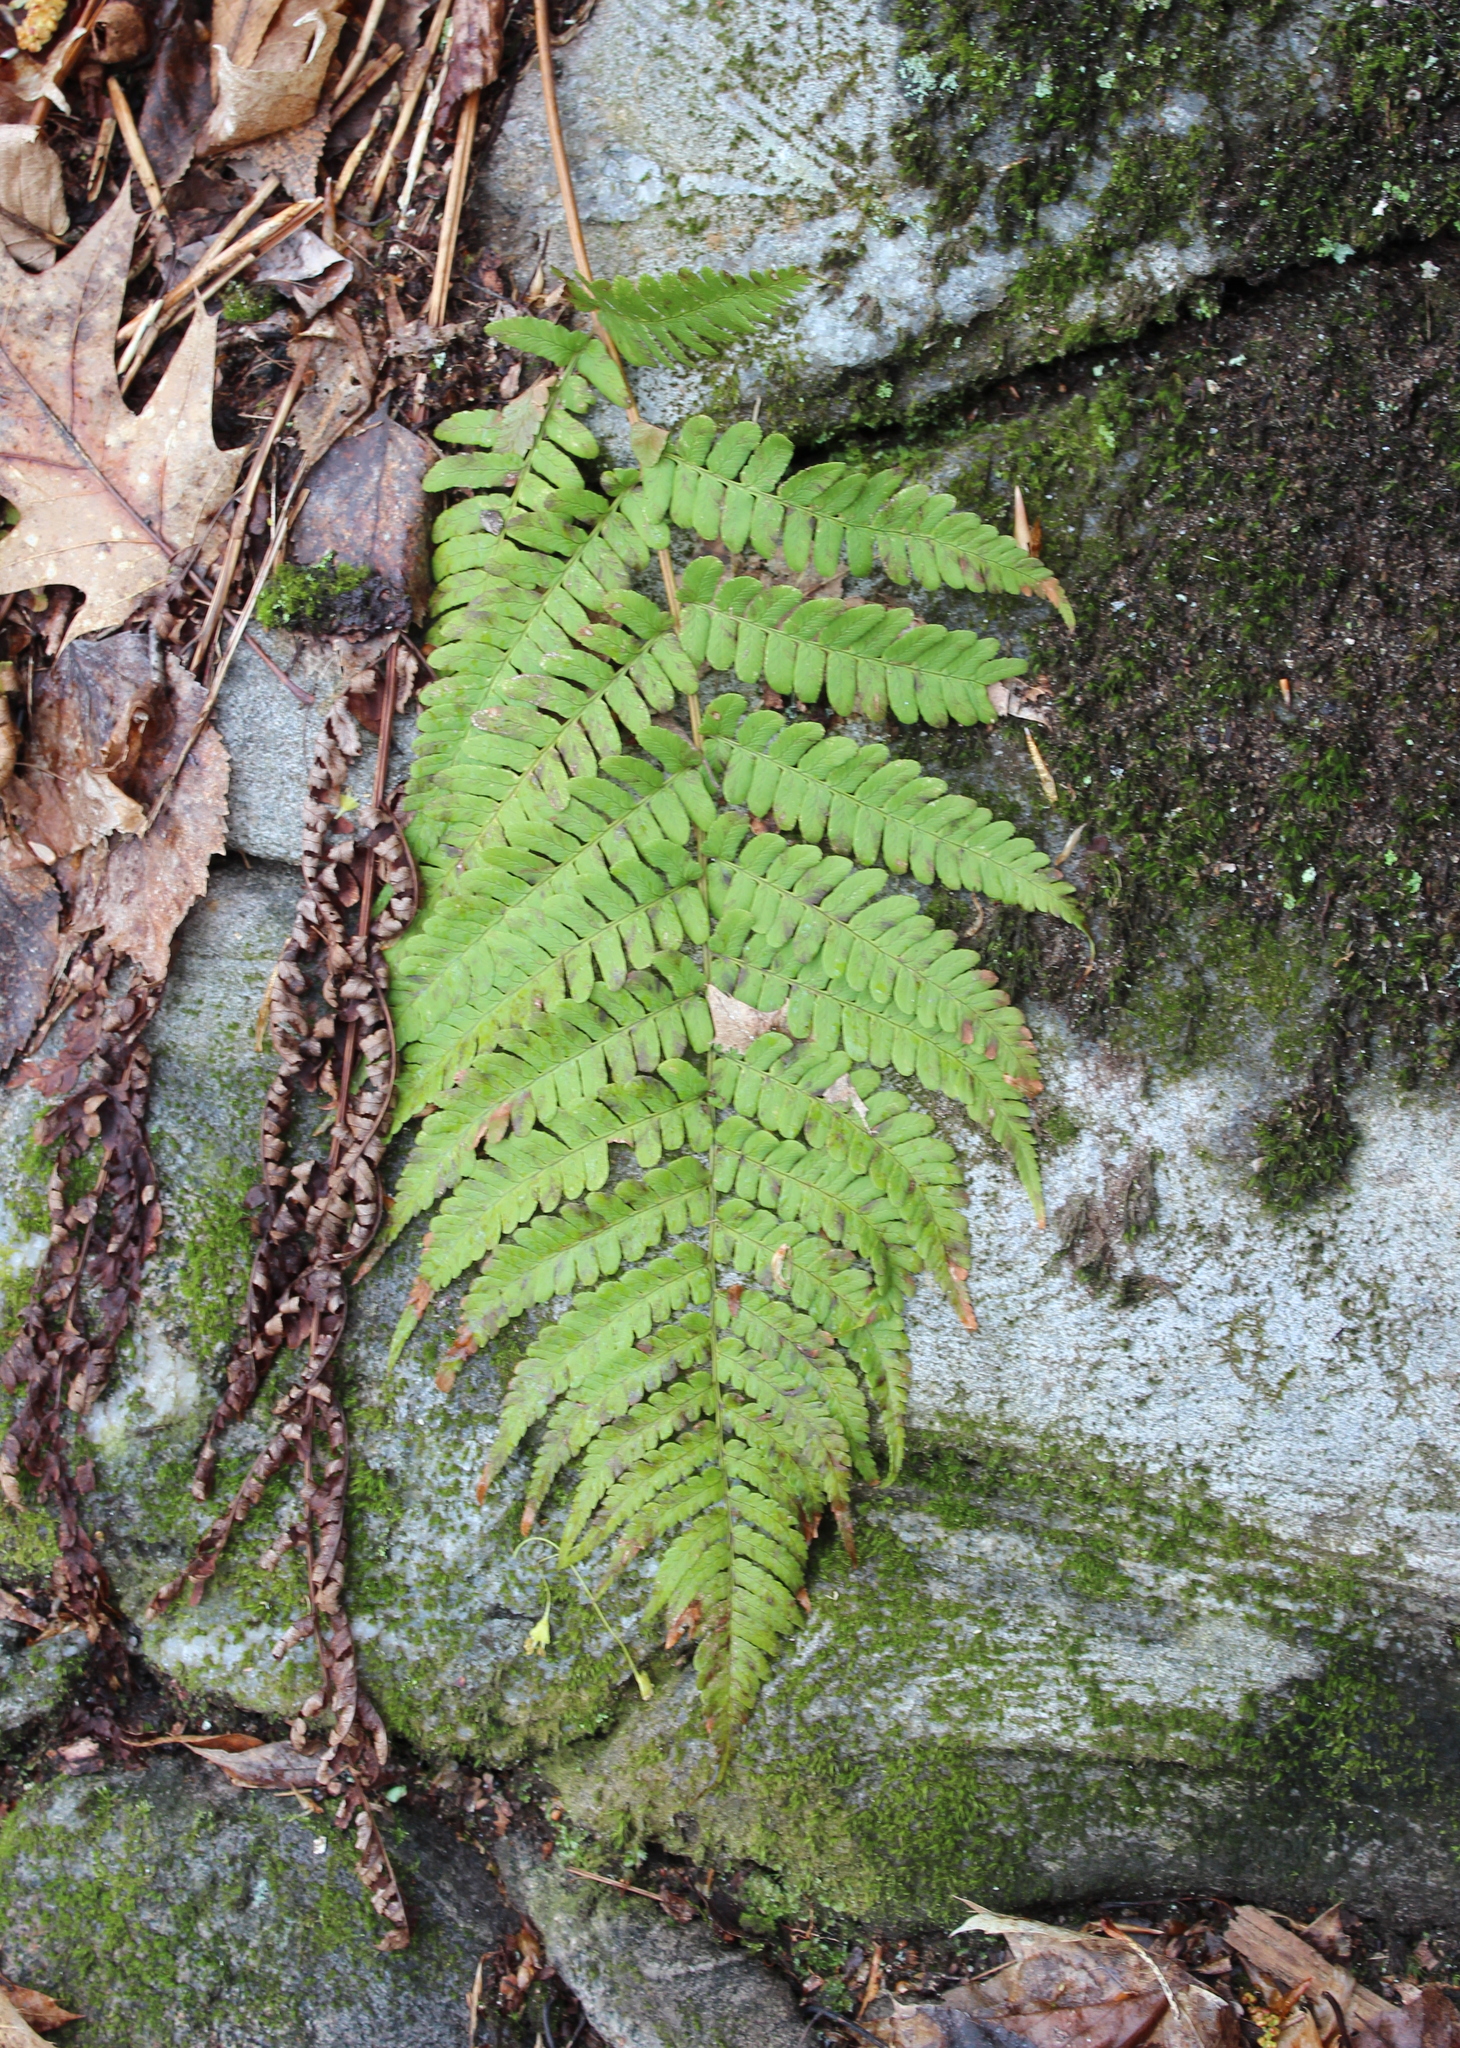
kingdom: Plantae
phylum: Tracheophyta
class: Polypodiopsida
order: Polypodiales
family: Dryopteridaceae
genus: Dryopteris
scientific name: Dryopteris marginalis
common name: Marginal wood fern
